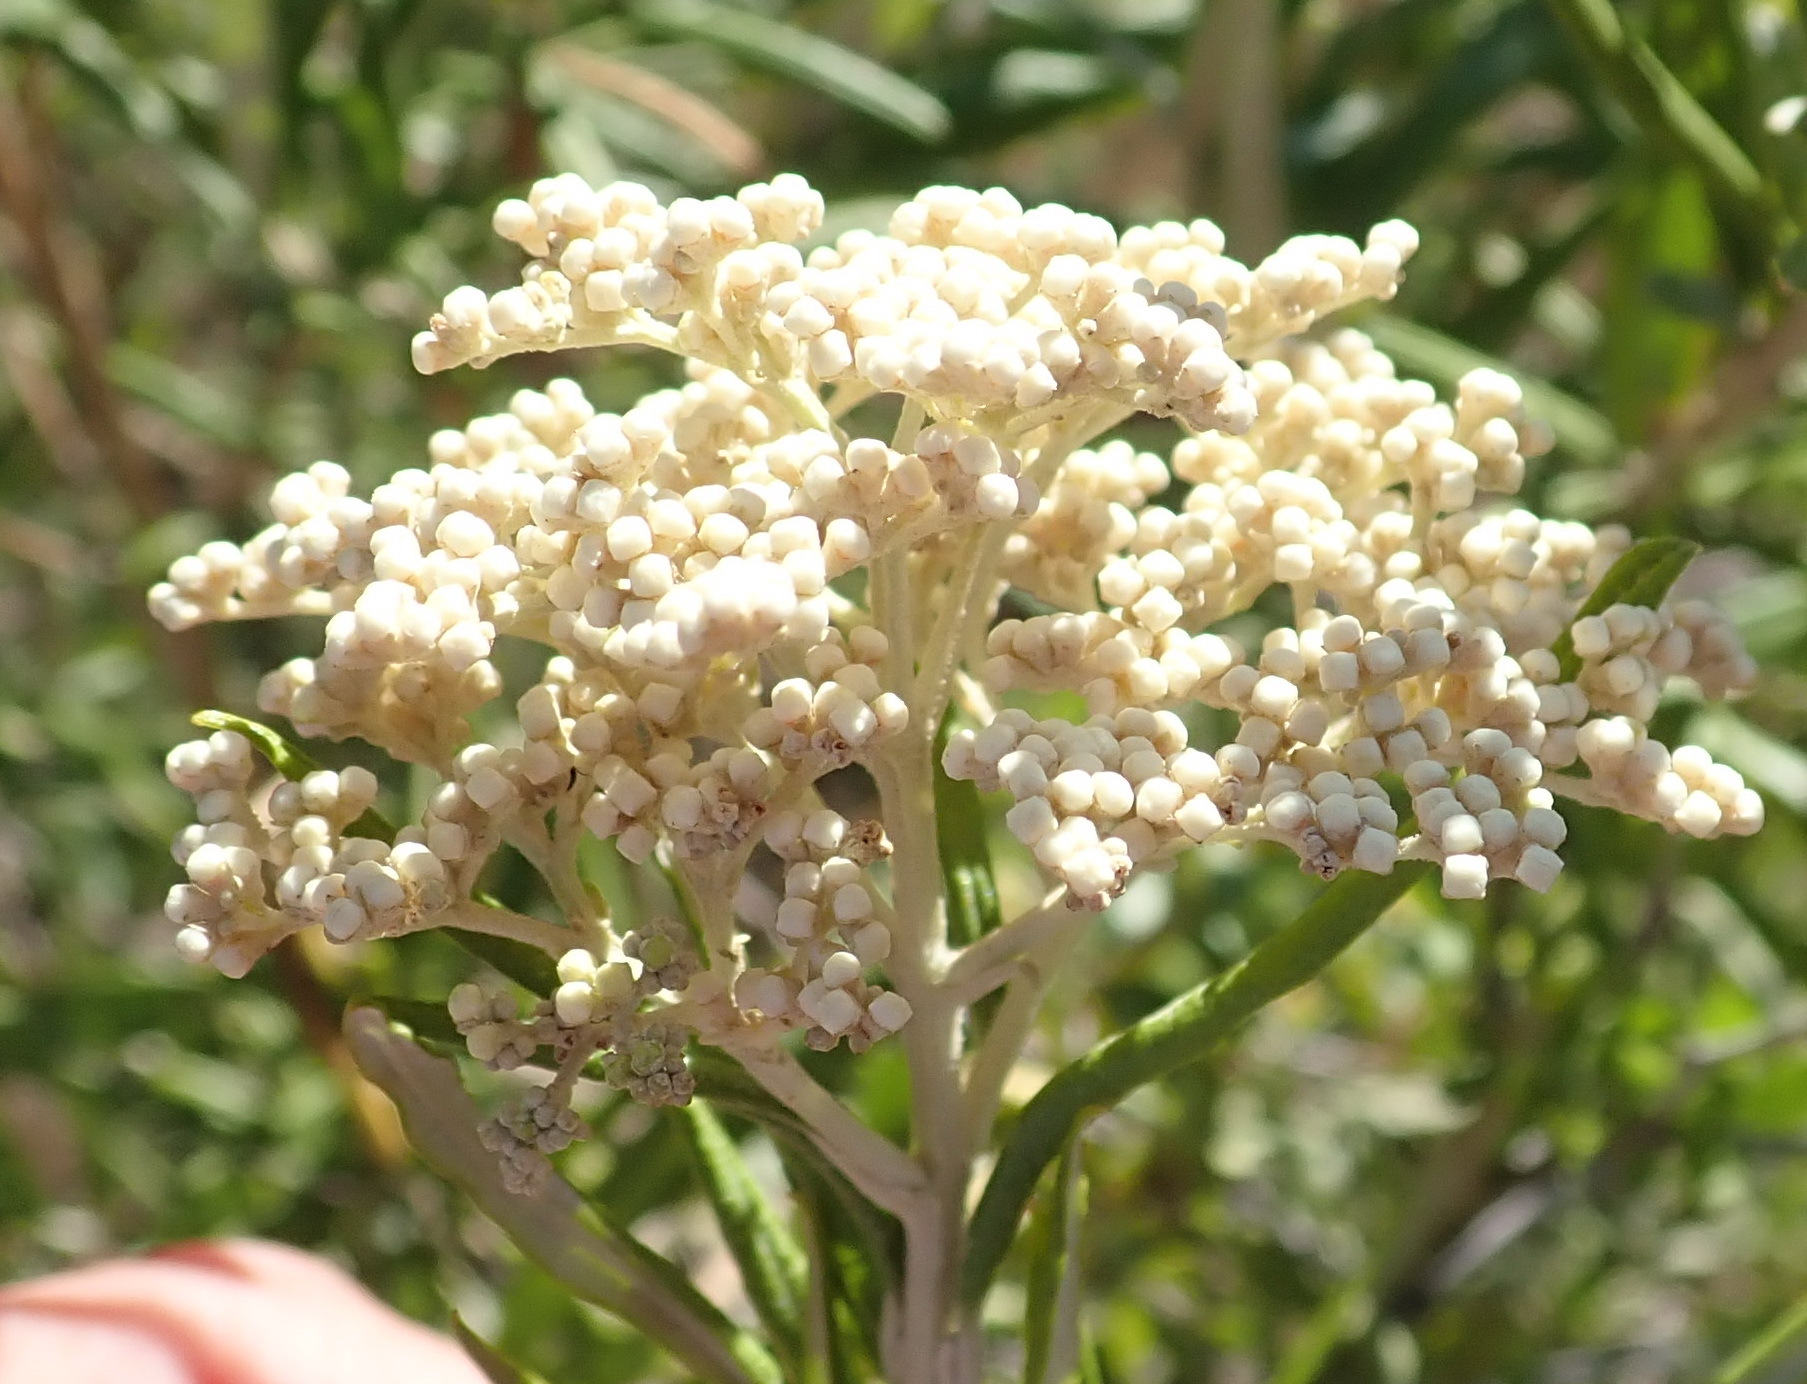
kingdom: Plantae
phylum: Tracheophyta
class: Magnoliopsida
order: Lamiales
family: Scrophulariaceae
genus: Buddleja
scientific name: Buddleja saligna
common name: False olive
